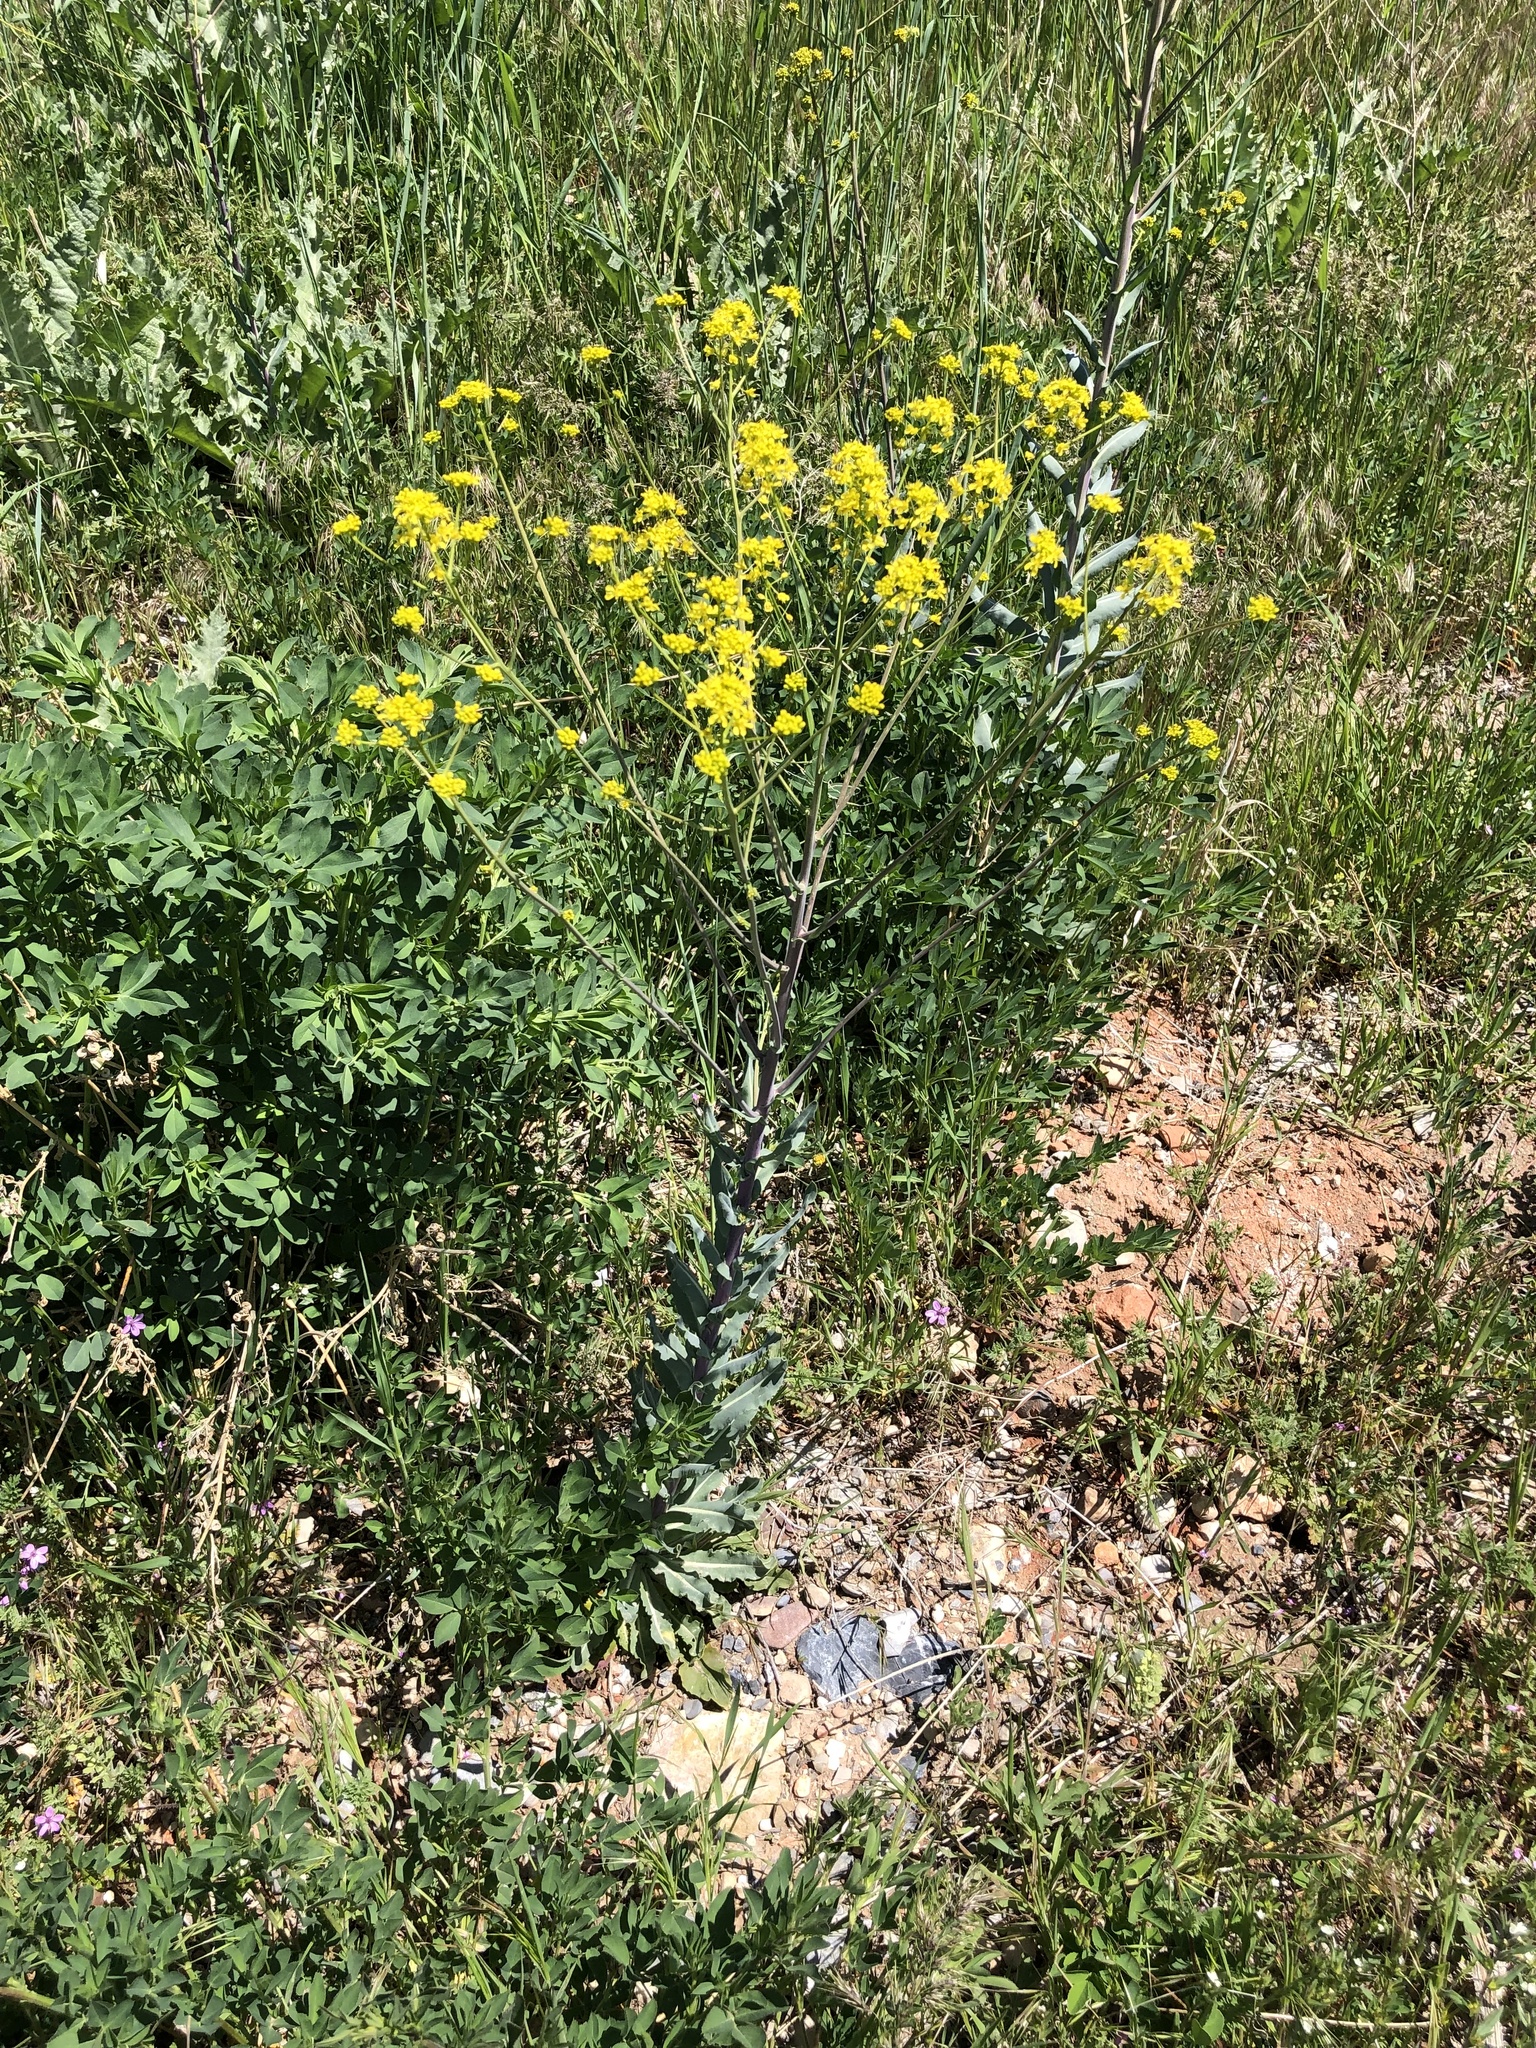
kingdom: Plantae
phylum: Tracheophyta
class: Magnoliopsida
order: Brassicales
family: Brassicaceae
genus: Isatis
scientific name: Isatis tinctoria
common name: Woad
